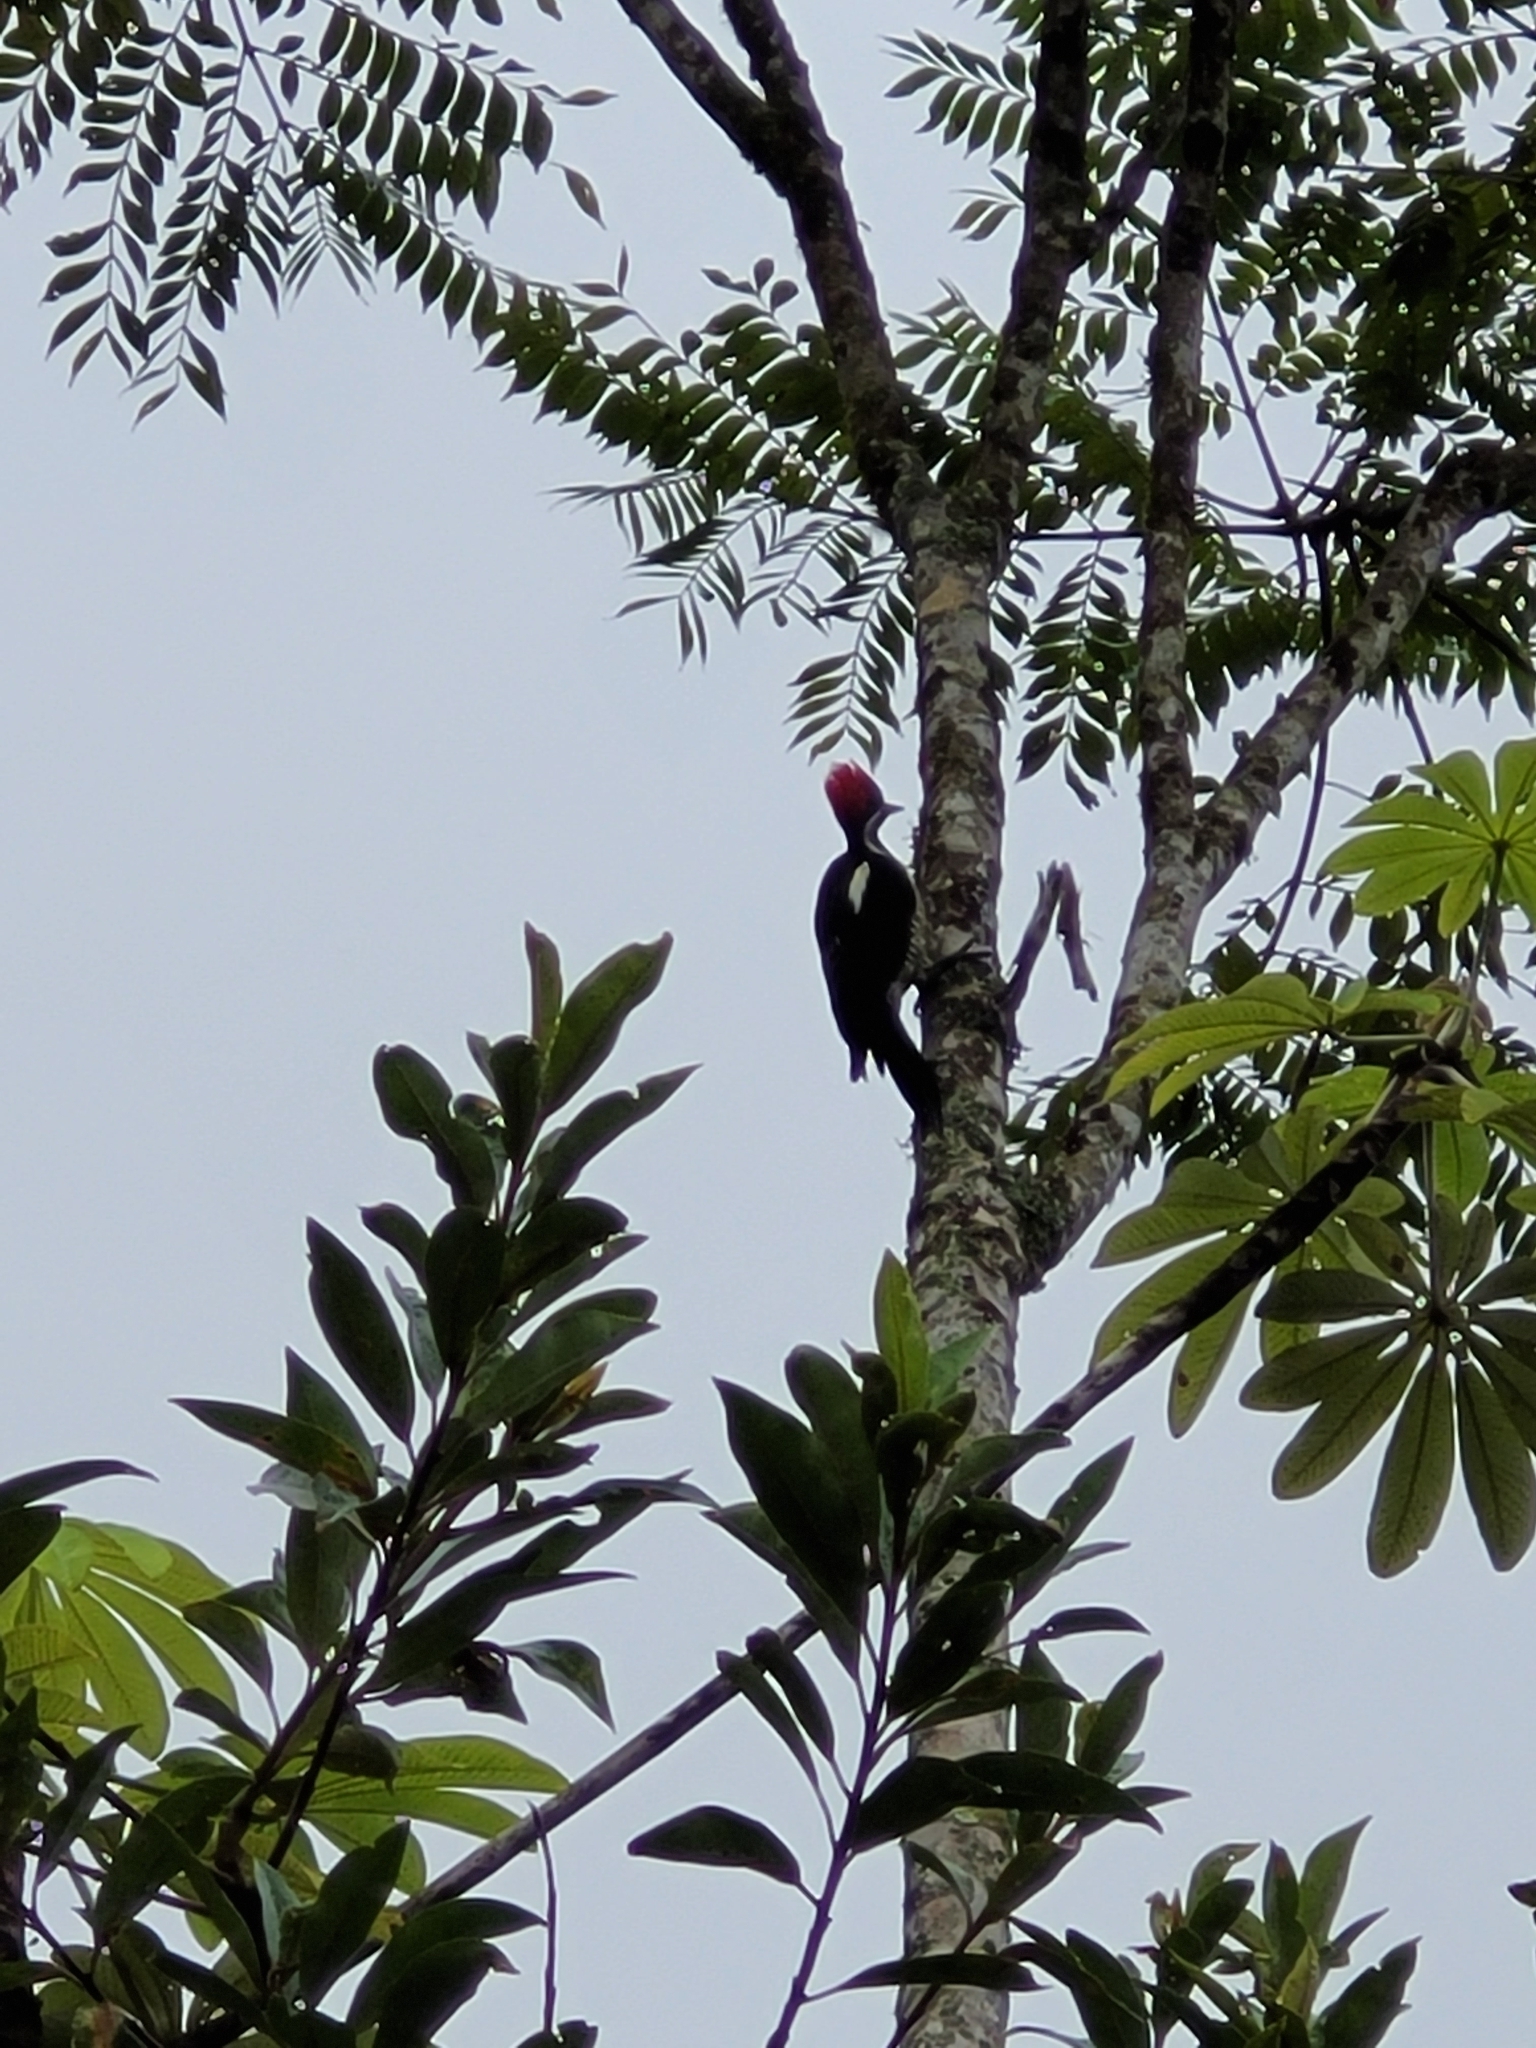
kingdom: Animalia
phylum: Chordata
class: Aves
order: Piciformes
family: Picidae
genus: Dryocopus
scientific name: Dryocopus lineatus
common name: Lineated woodpecker
